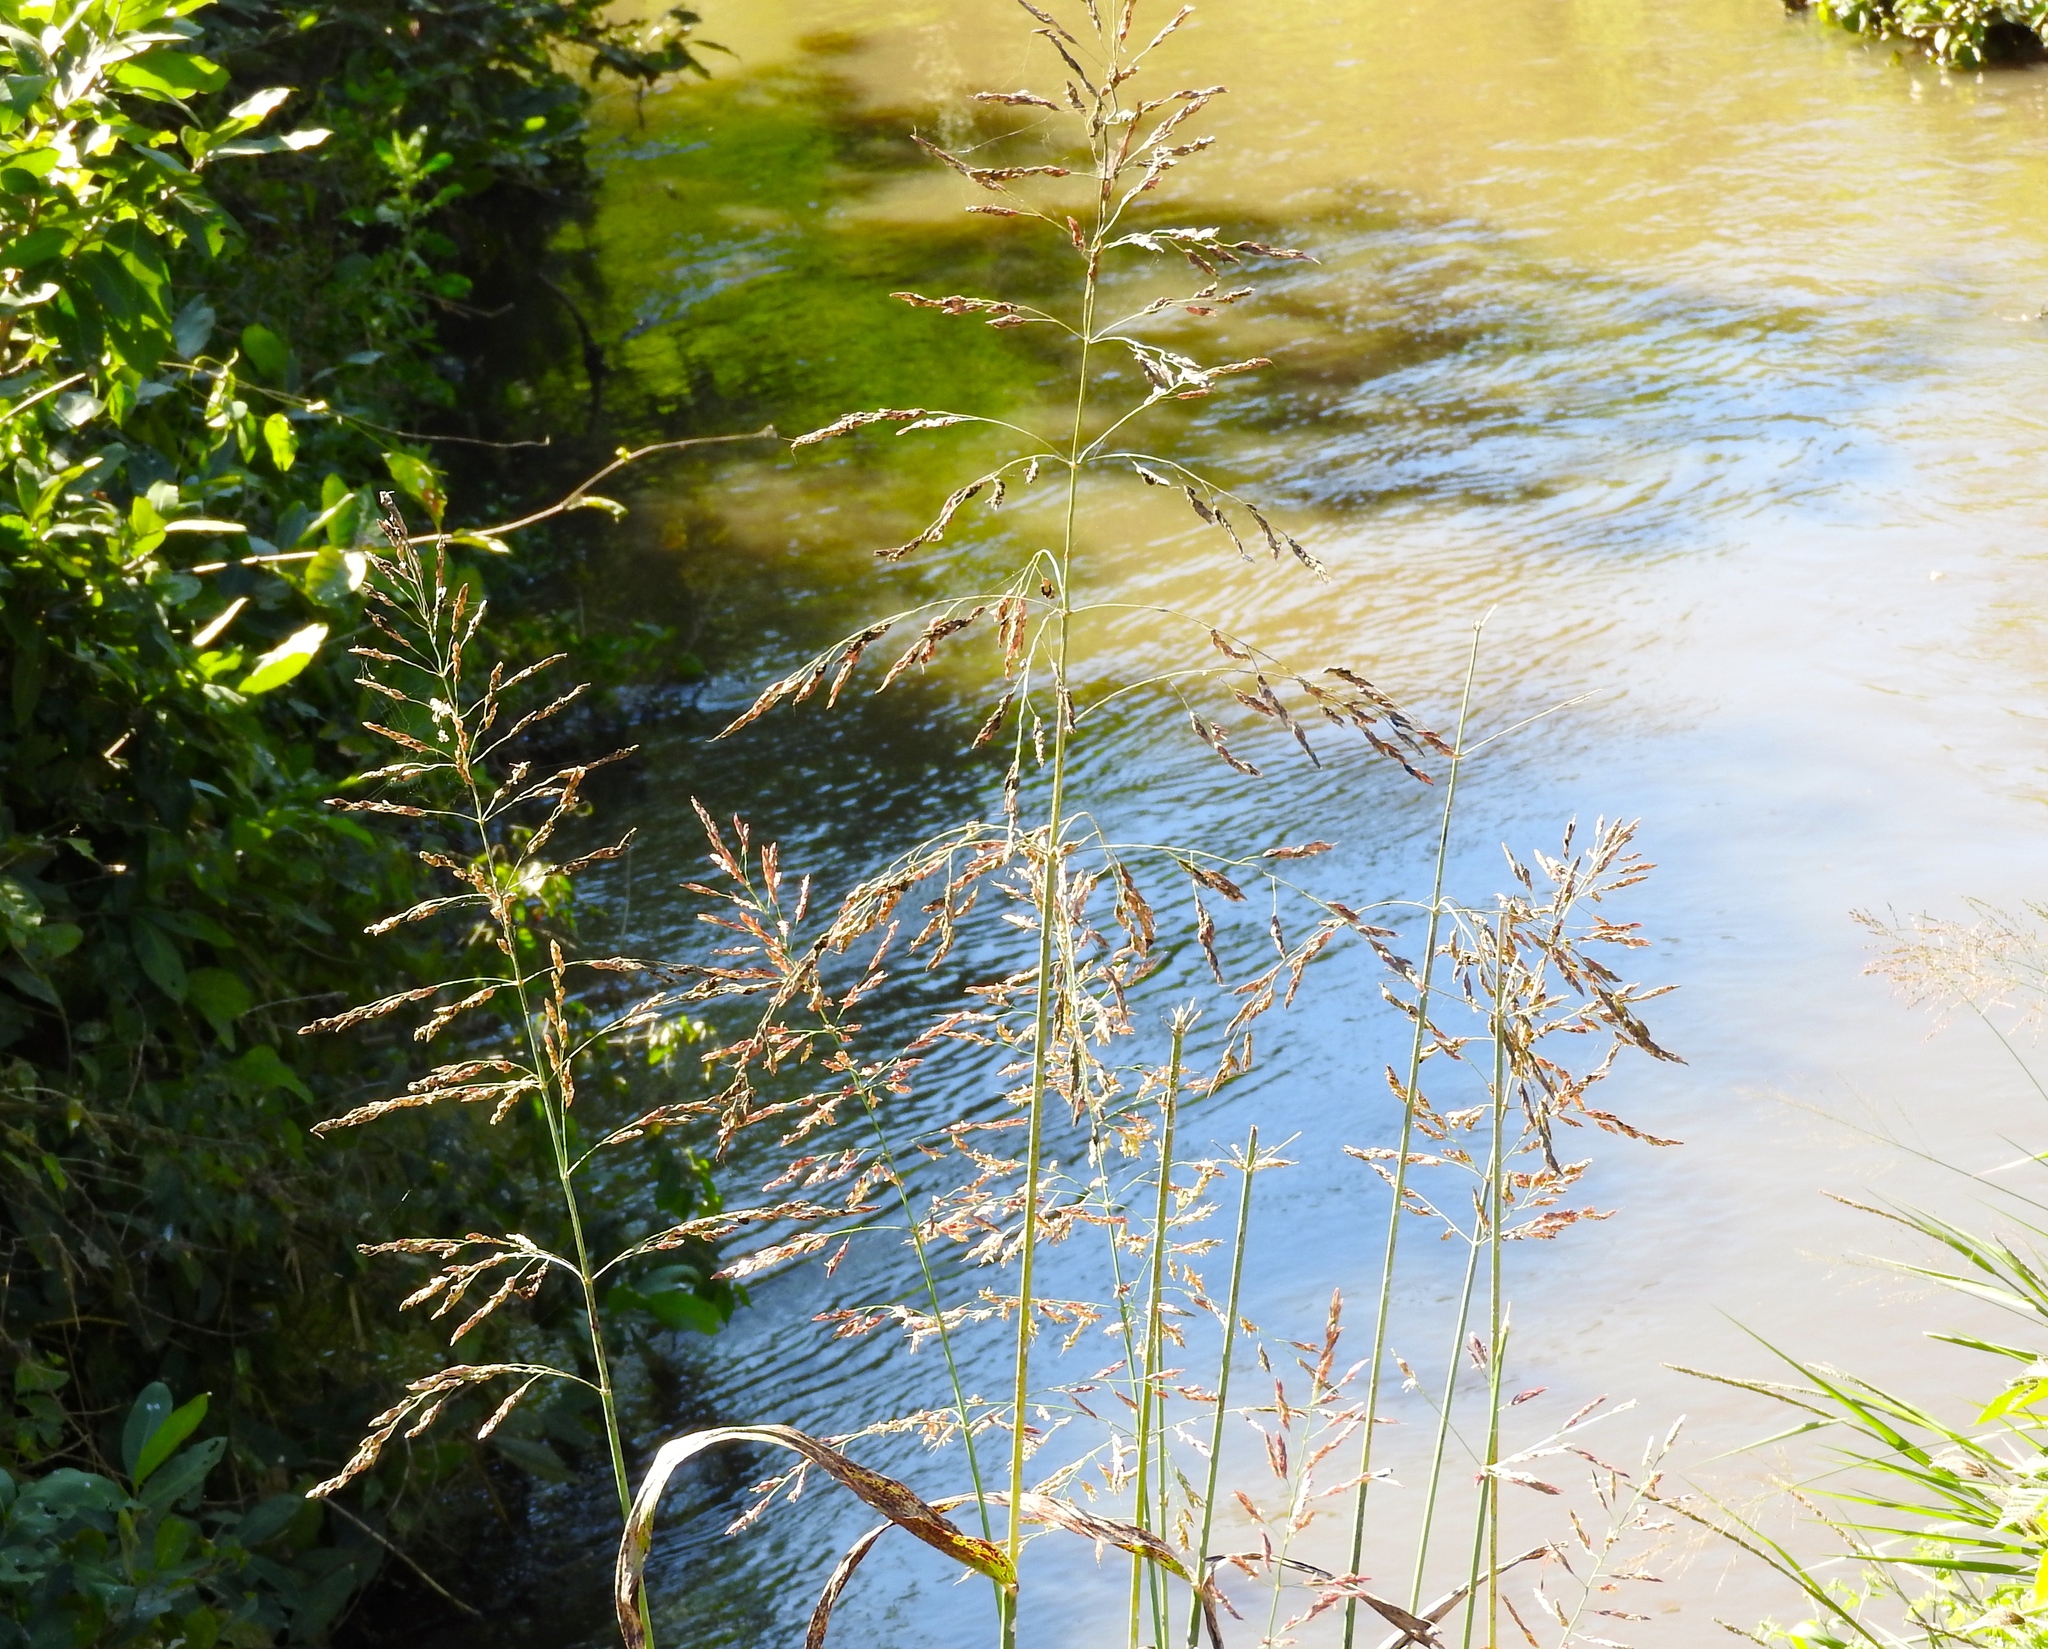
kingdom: Plantae
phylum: Tracheophyta
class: Liliopsida
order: Poales
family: Poaceae
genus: Sorghum
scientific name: Sorghum halepense
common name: Johnson-grass
